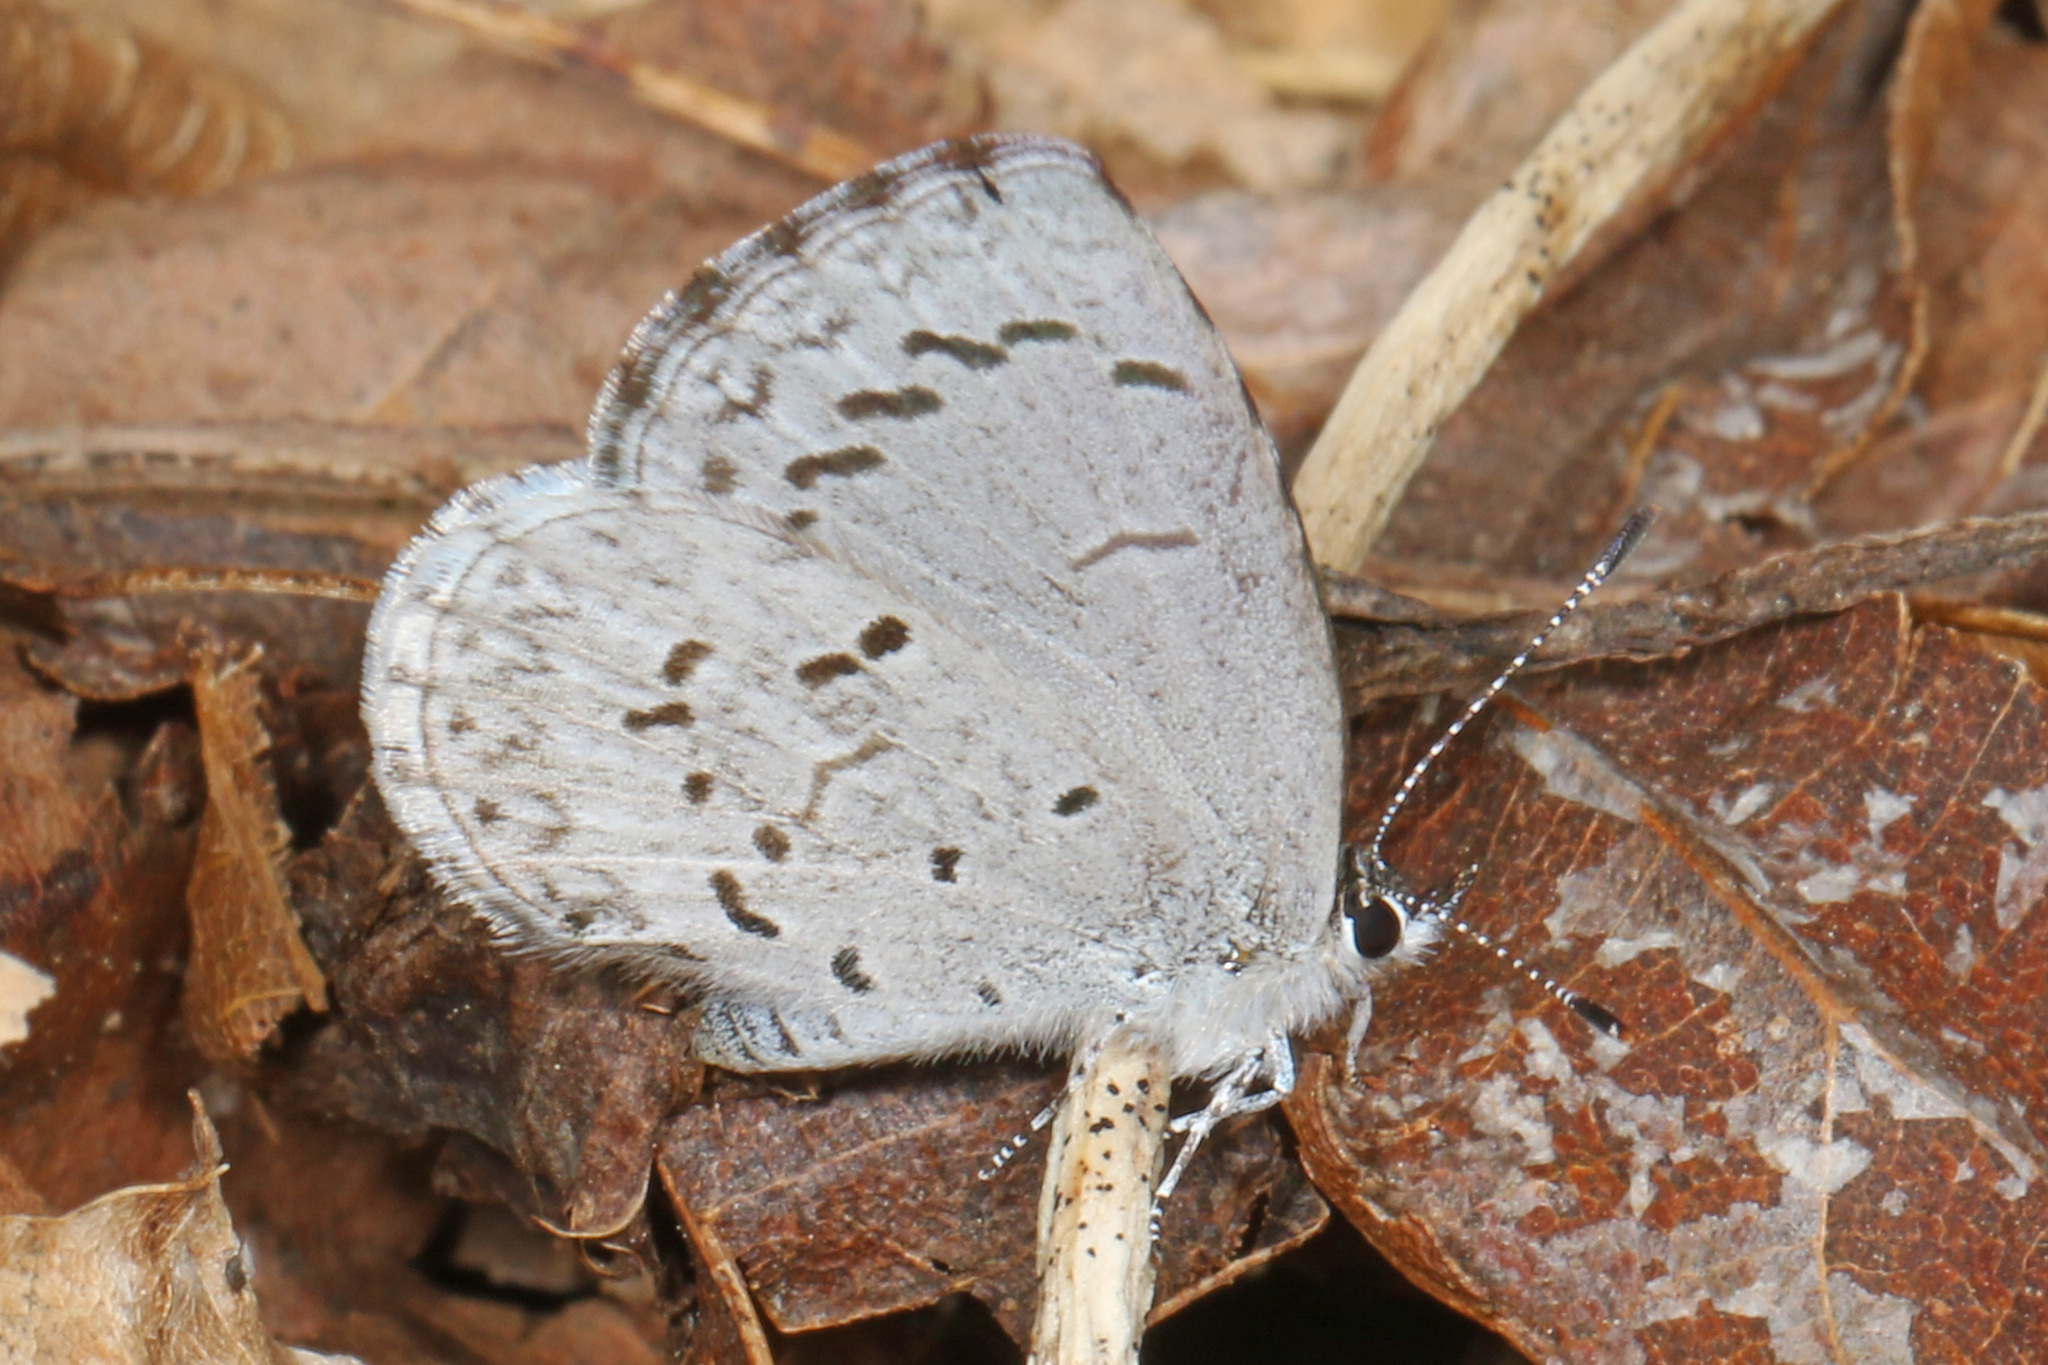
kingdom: Animalia
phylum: Arthropoda
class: Insecta
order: Lepidoptera
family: Lycaenidae
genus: Celastrina
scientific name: Celastrina
